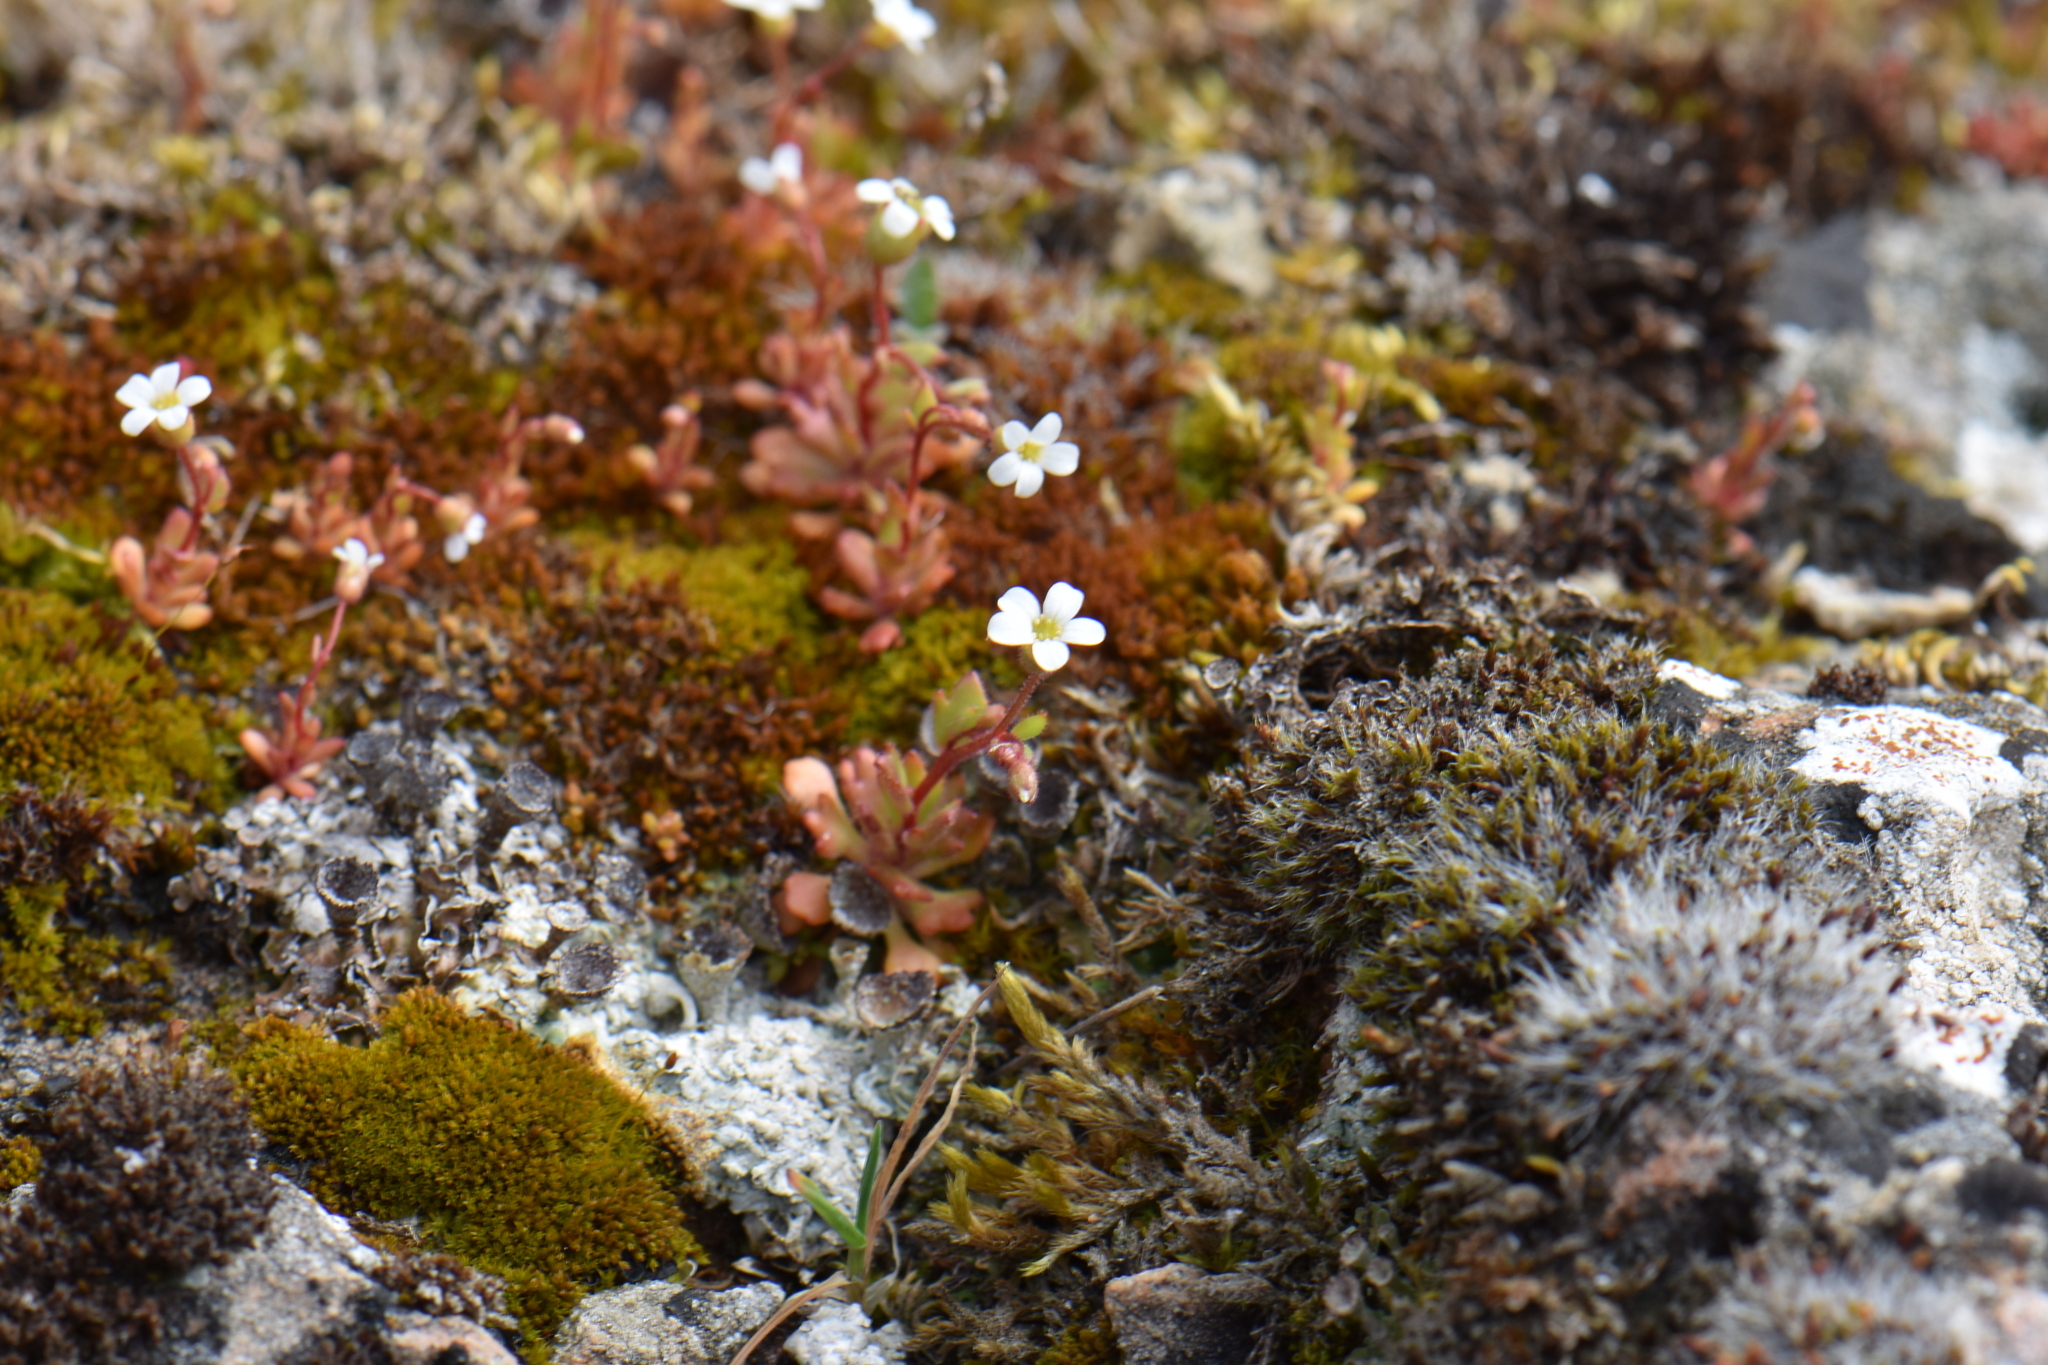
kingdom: Plantae
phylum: Tracheophyta
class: Magnoliopsida
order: Saxifragales
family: Saxifragaceae
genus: Saxifraga
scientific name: Saxifraga tridactylites
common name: Rue-leaved saxifrage
